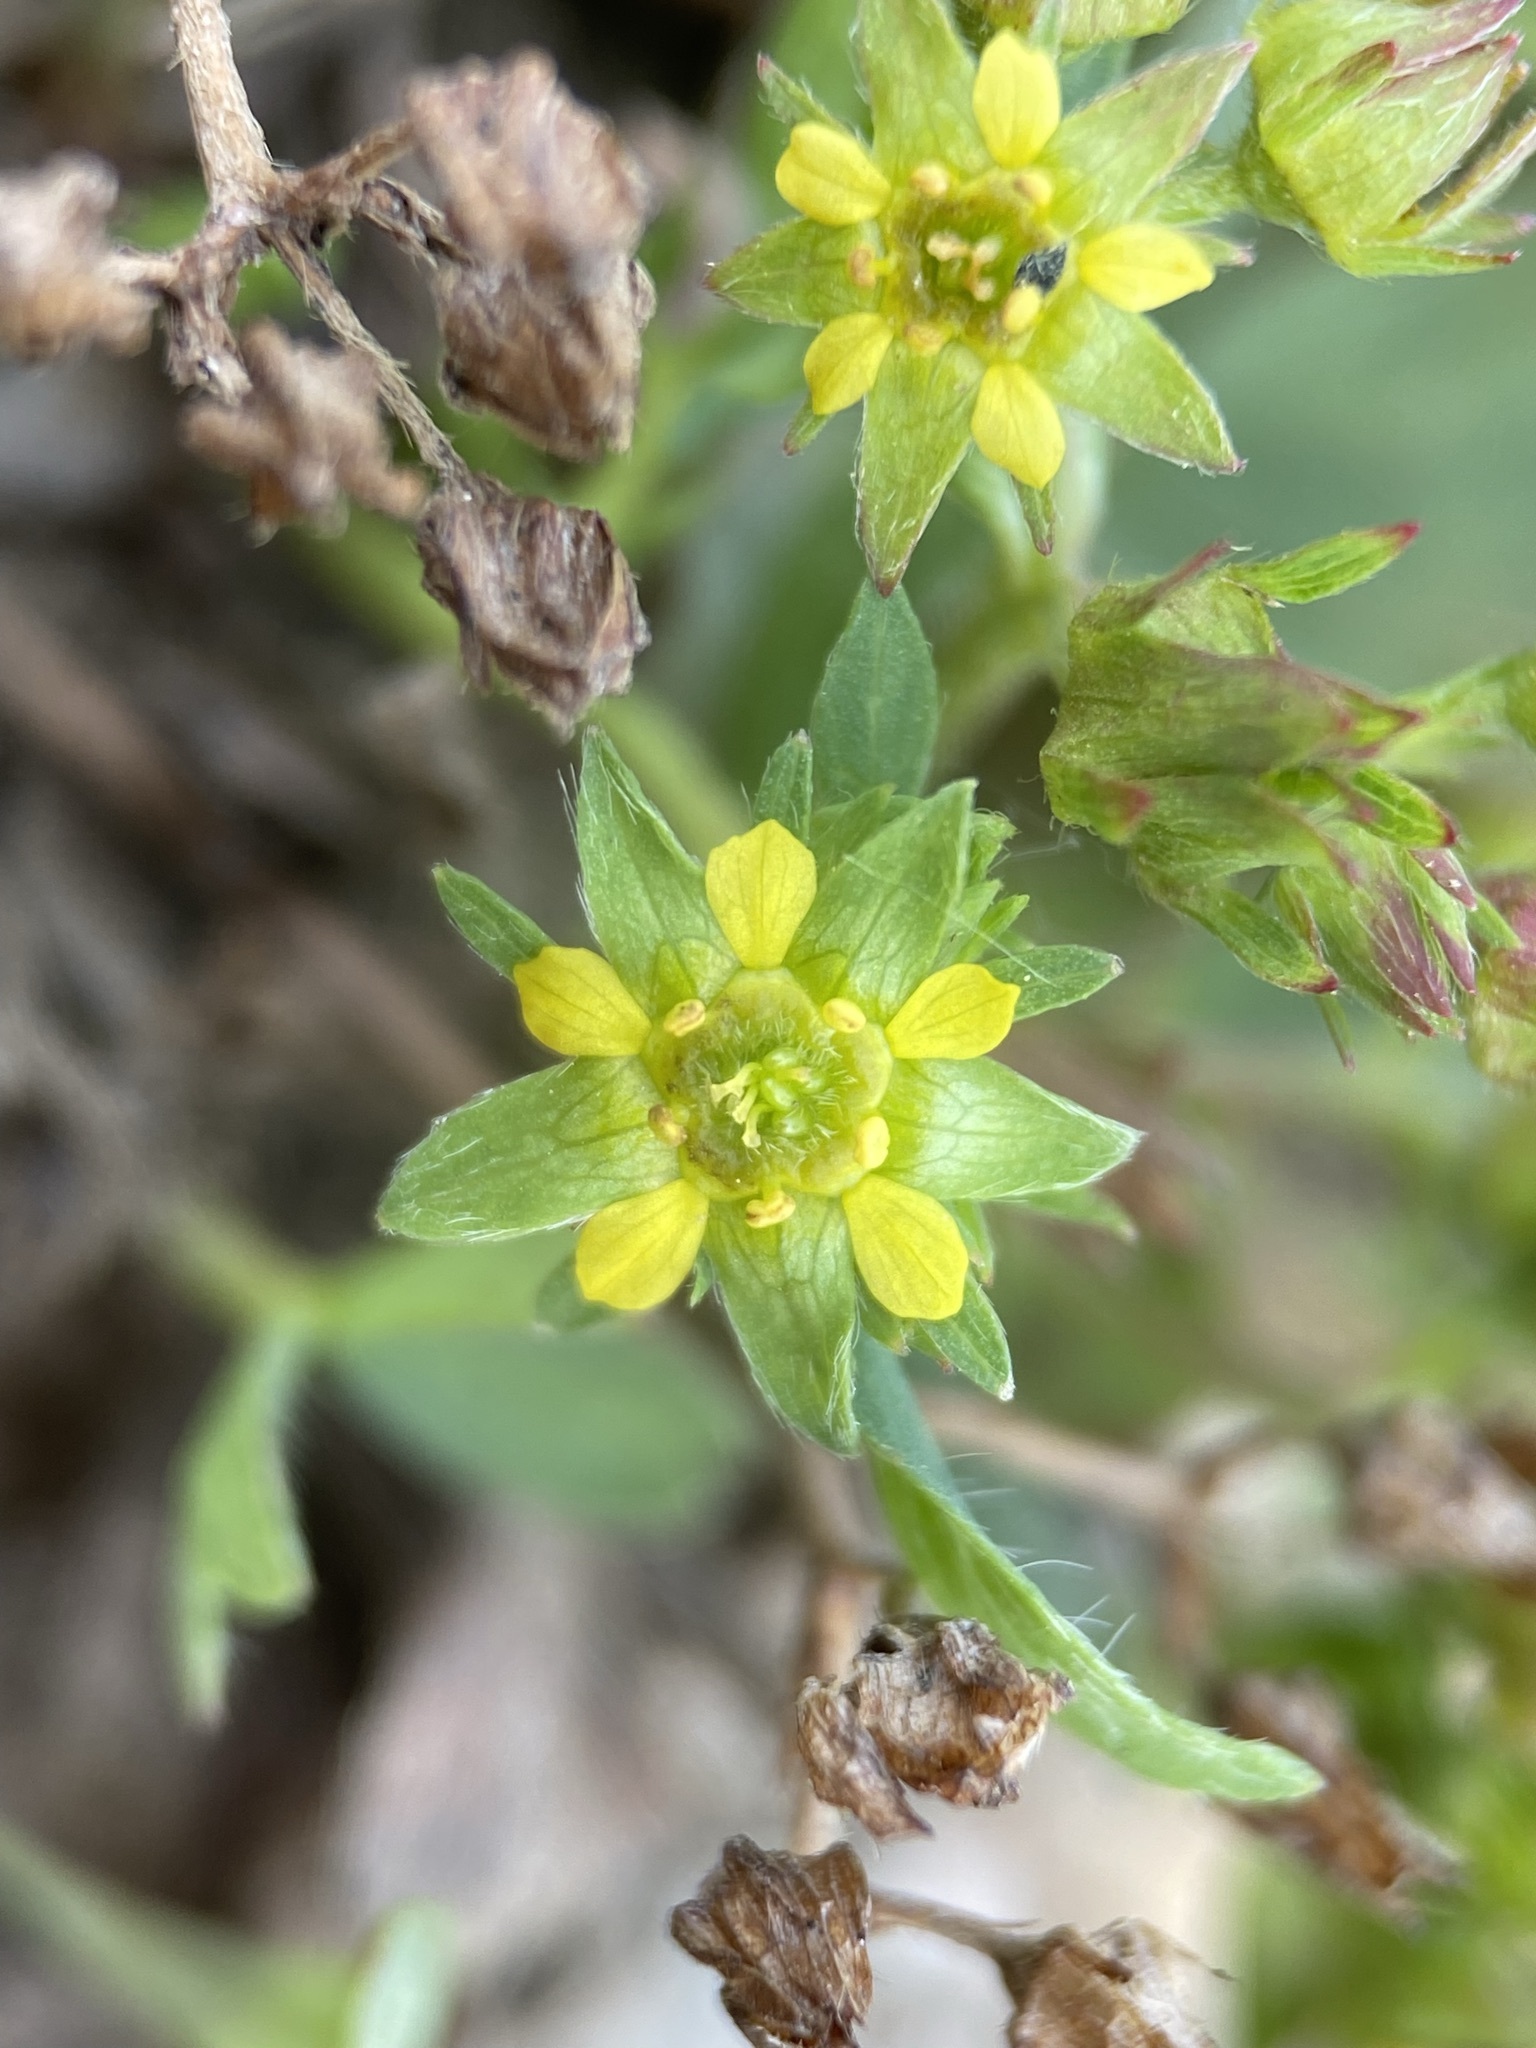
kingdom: Plantae
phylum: Tracheophyta
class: Magnoliopsida
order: Rosales
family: Rosaceae
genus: Sibbaldia
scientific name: Sibbaldia procumbens
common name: Creeping sibbaldia
